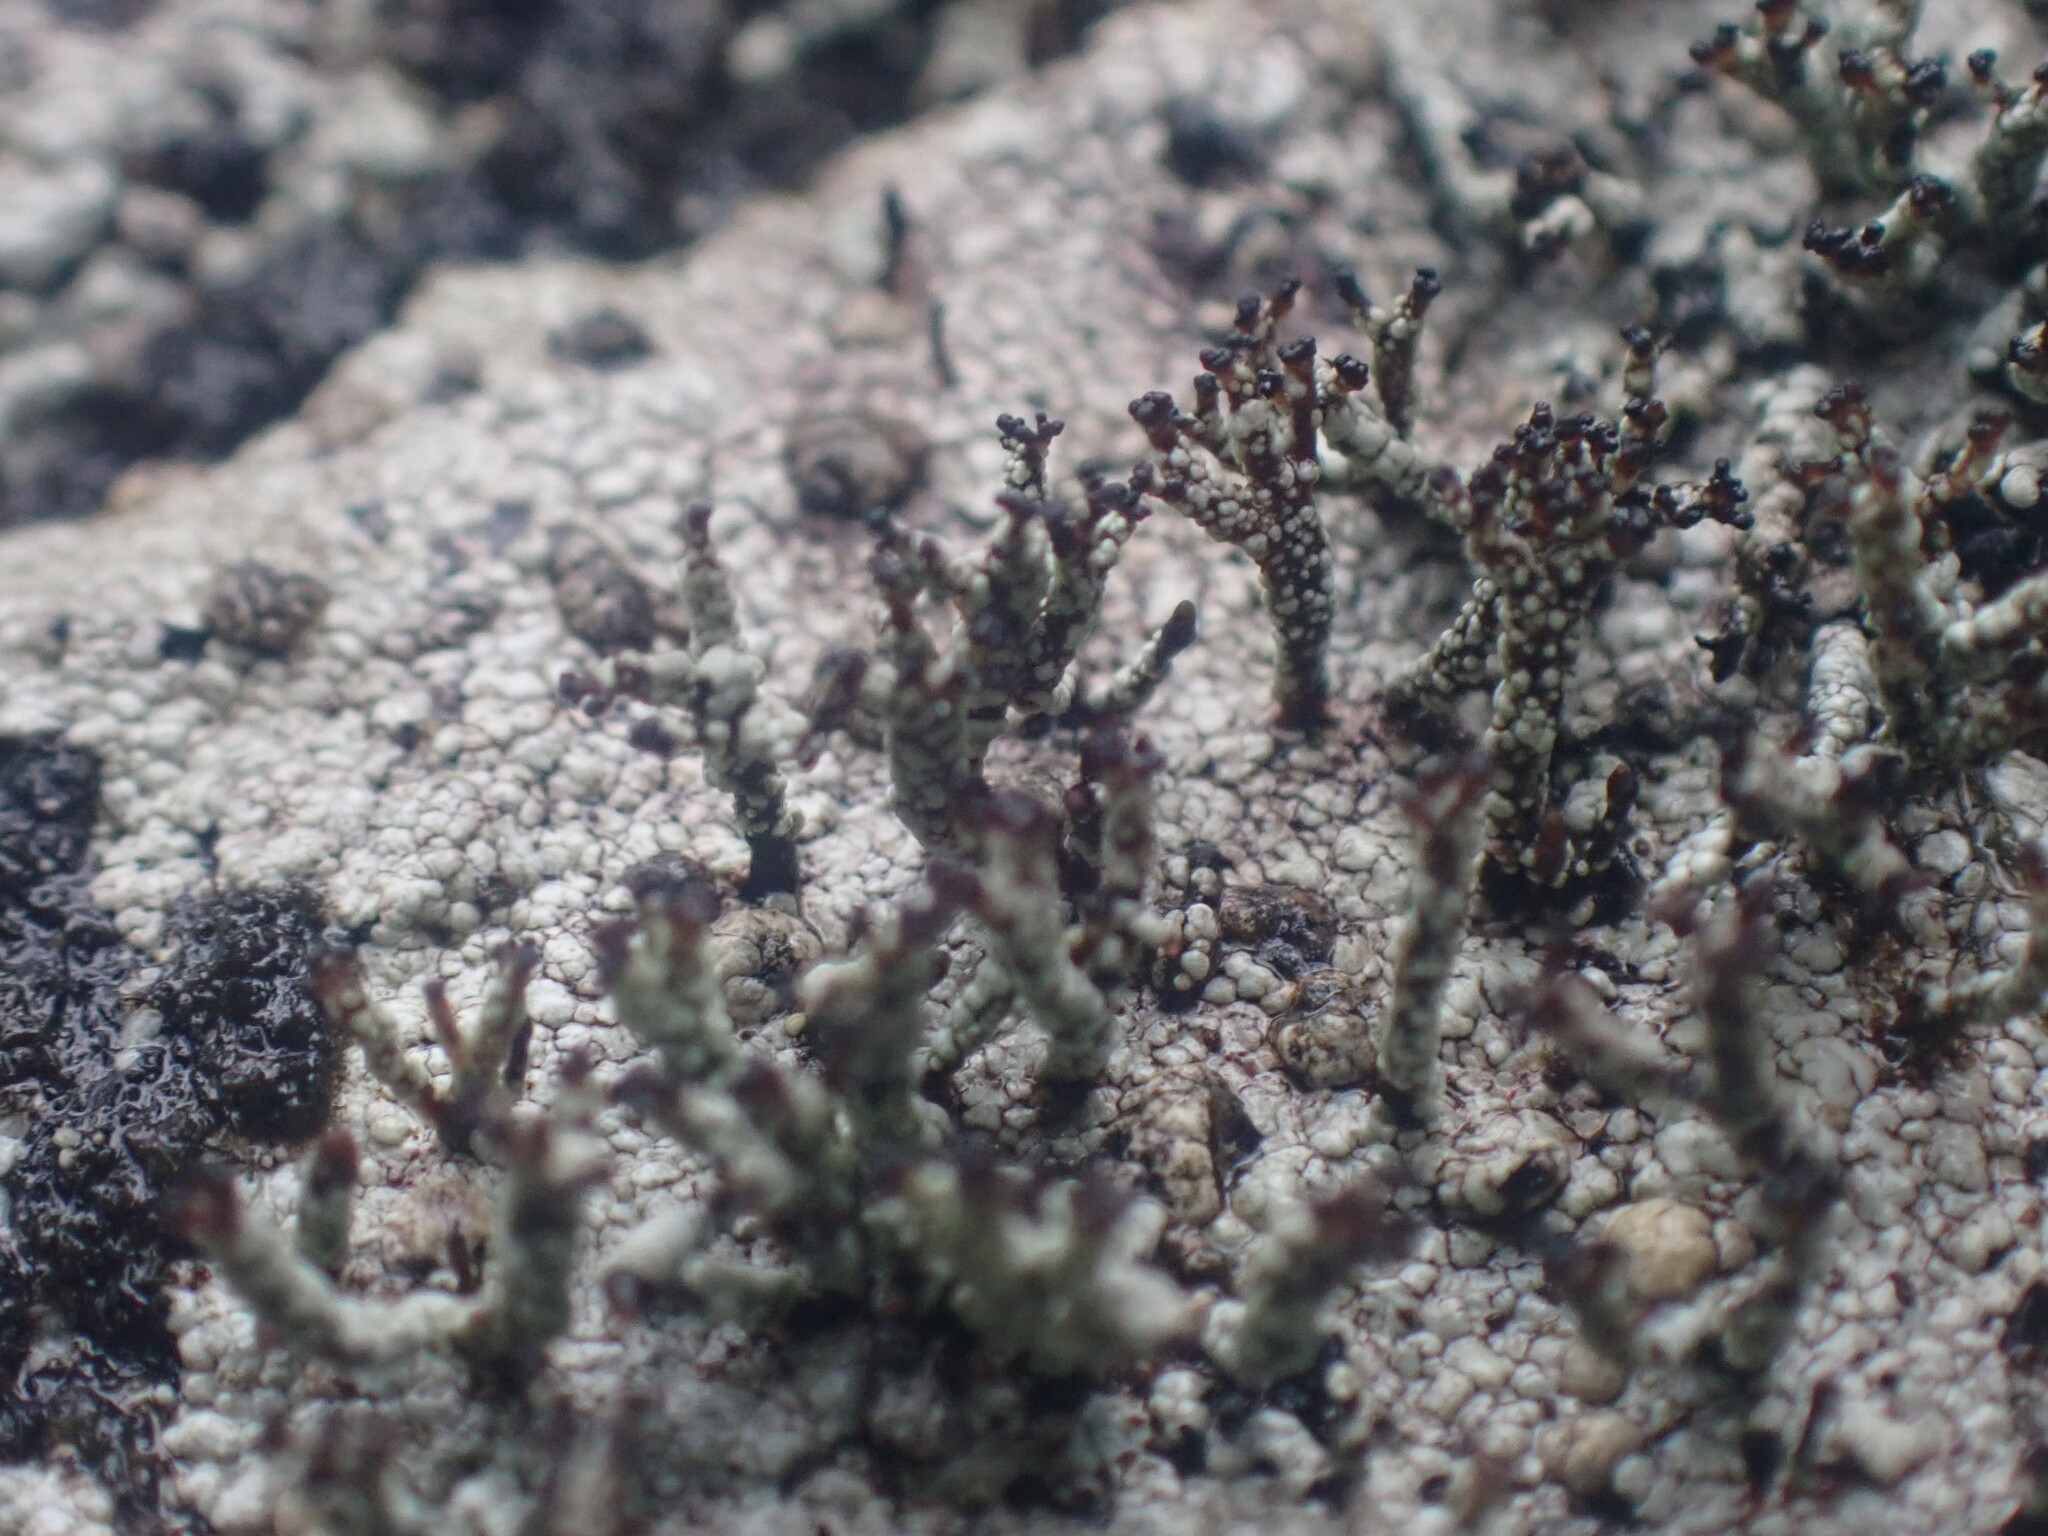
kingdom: Fungi
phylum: Ascomycota
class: Lecanoromycetes
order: Lecanorales
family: Cladoniaceae
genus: Pilophorus
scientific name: Pilophorus nigricaulis
